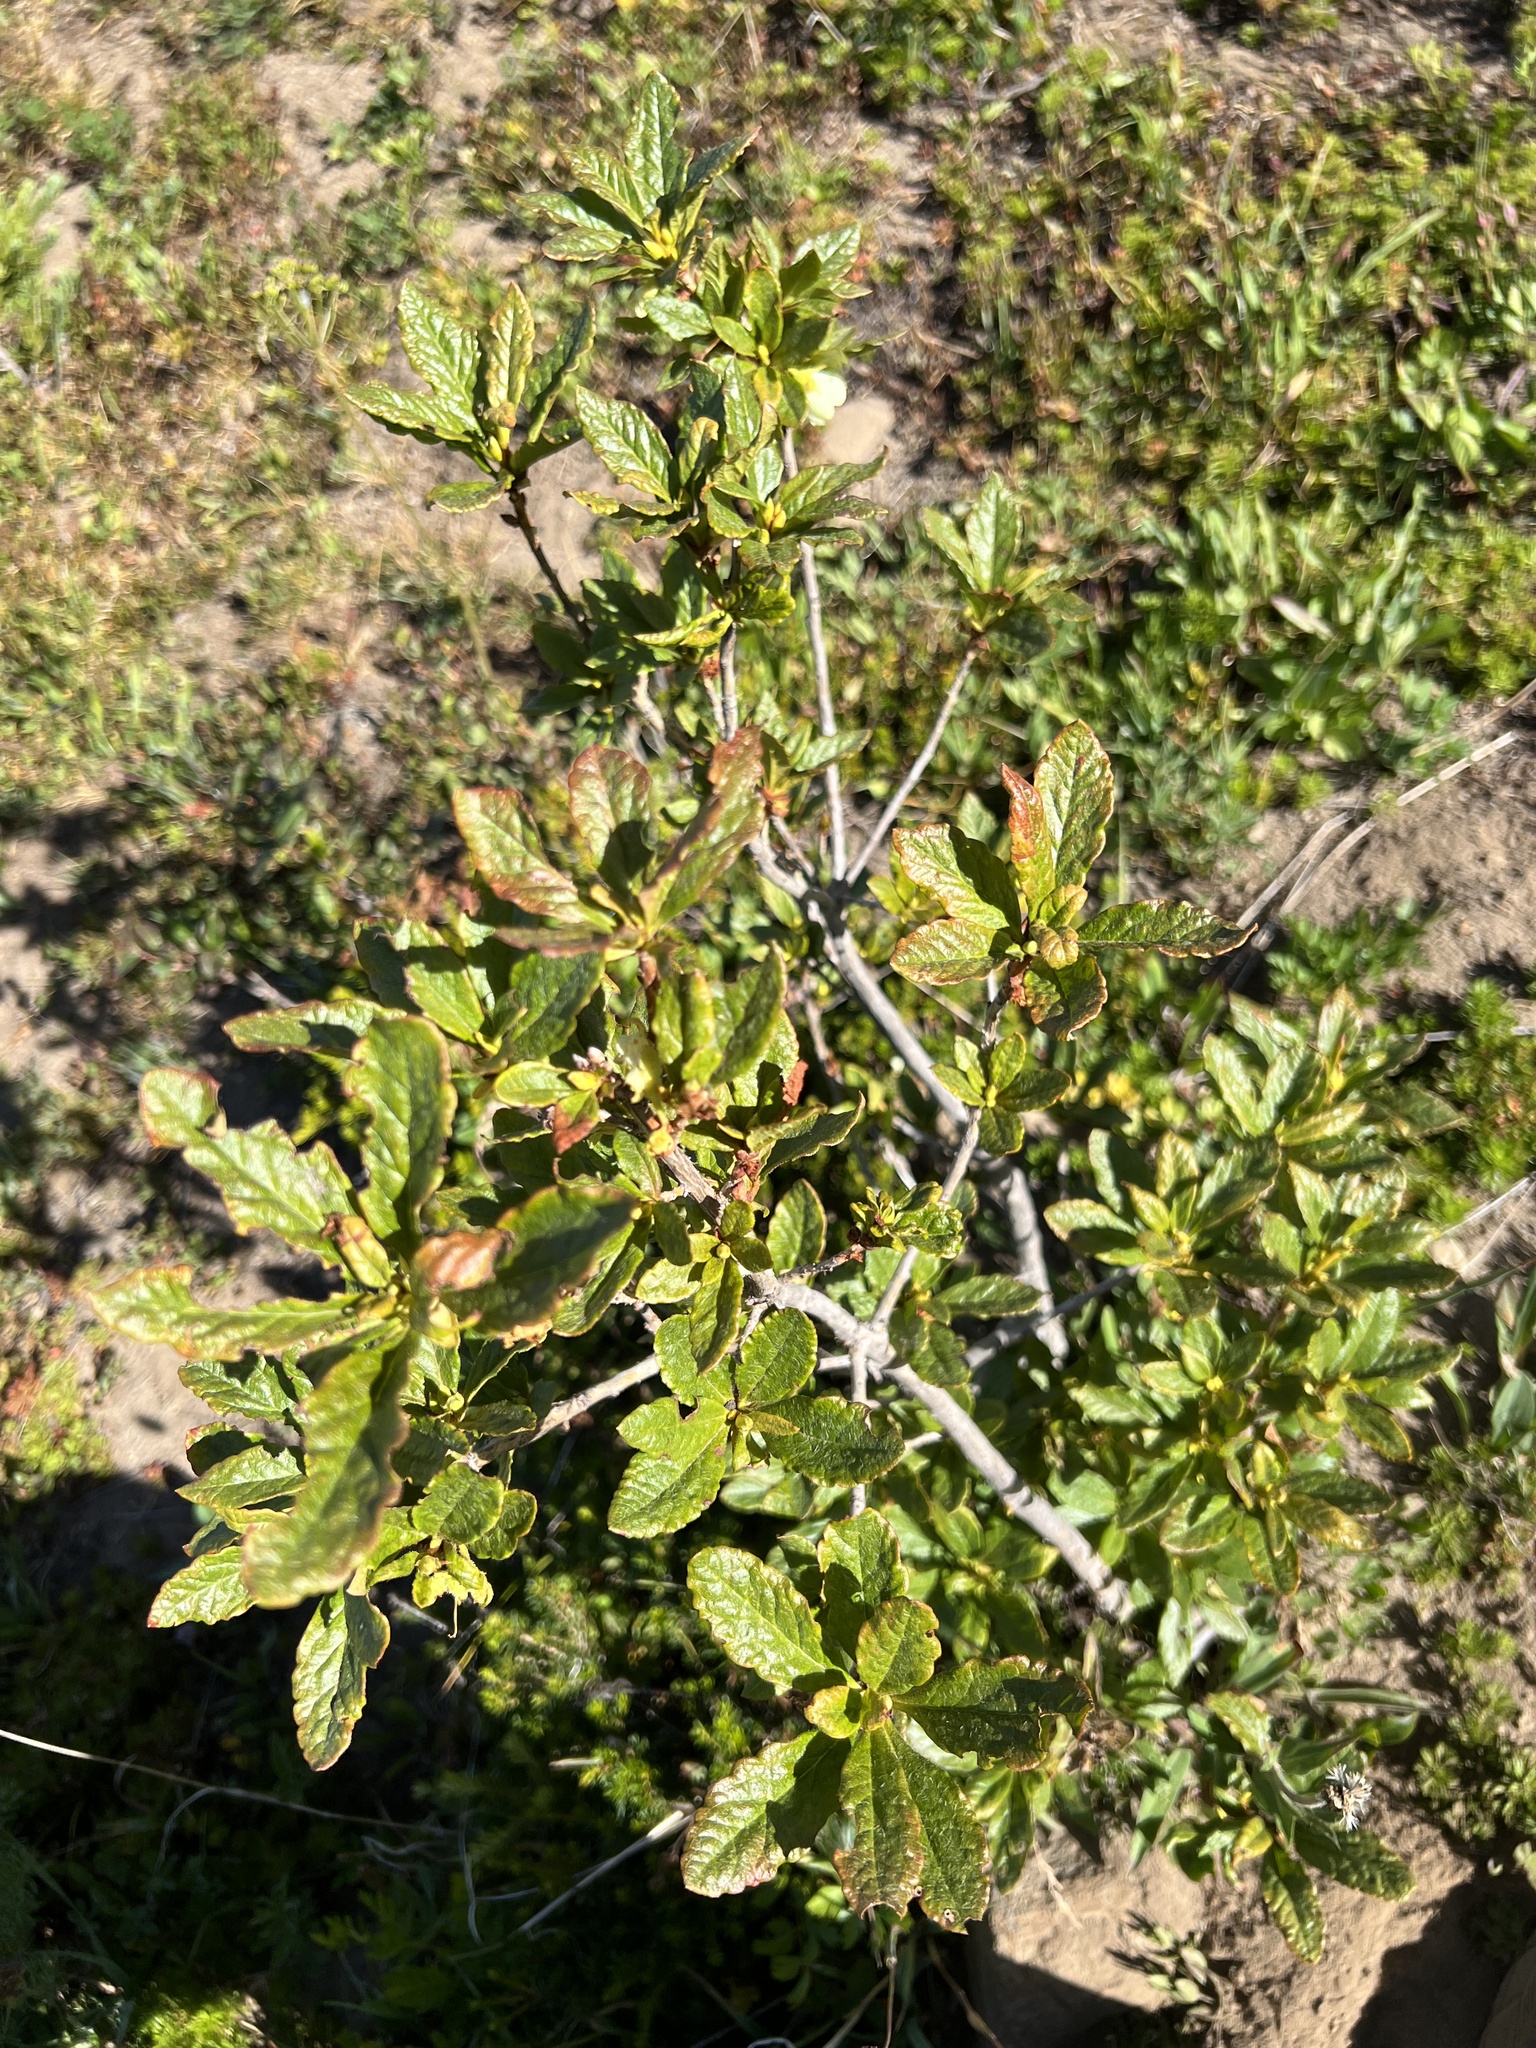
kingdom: Plantae
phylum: Tracheophyta
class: Magnoliopsida
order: Ericales
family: Ericaceae
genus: Rhododendron
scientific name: Rhododendron albiflorum
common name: White rhododendron
